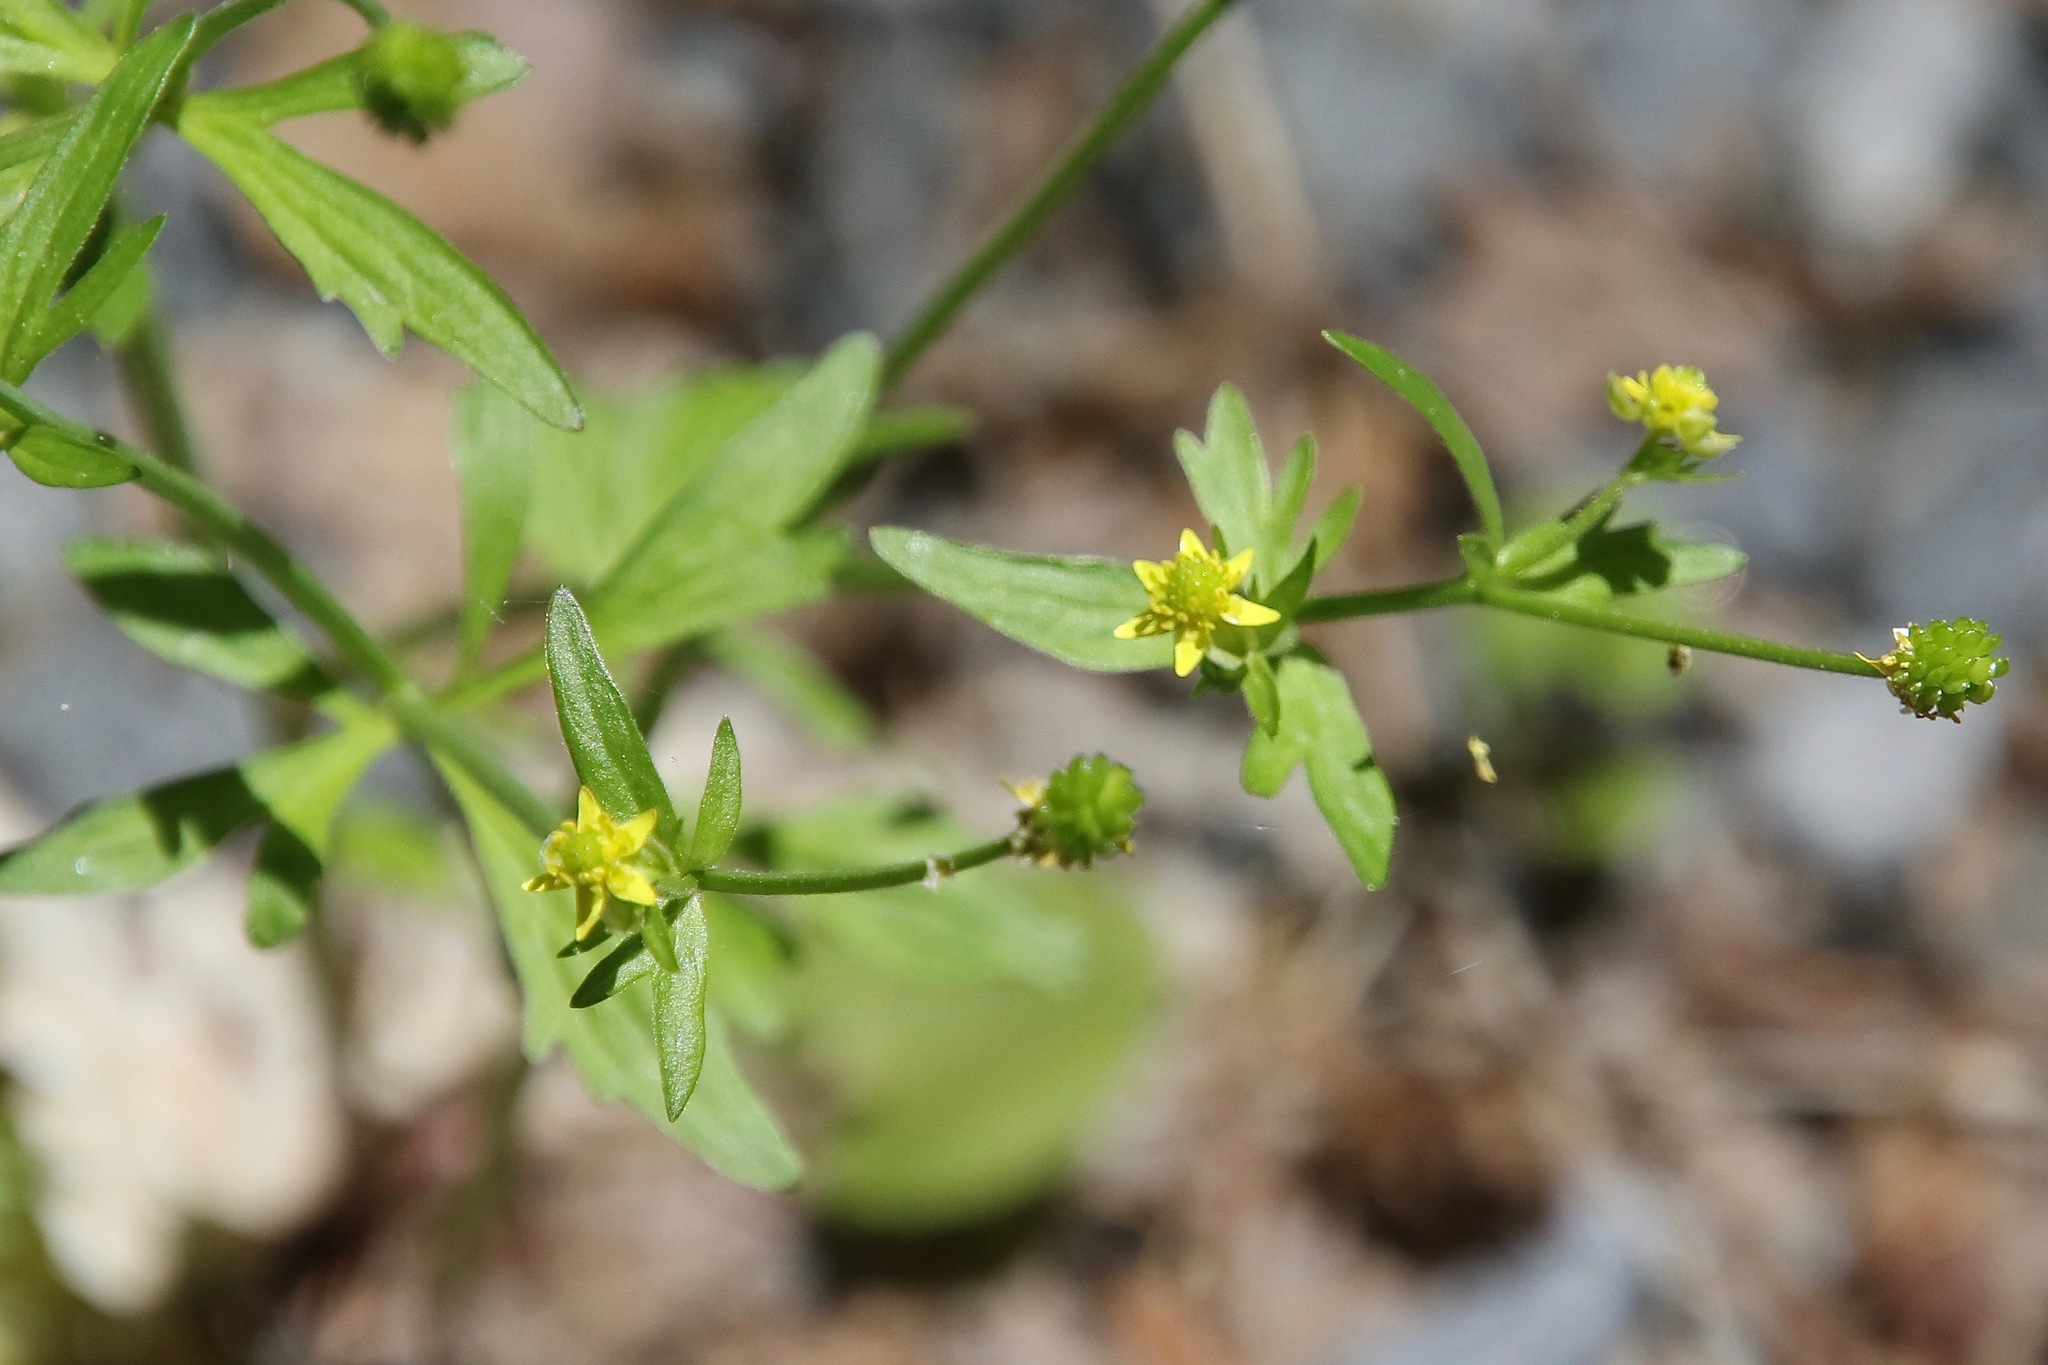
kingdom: Plantae
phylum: Tracheophyta
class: Magnoliopsida
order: Ranunculales
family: Ranunculaceae
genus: Ranunculus
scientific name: Ranunculus abortivus
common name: Early wood buttercup
